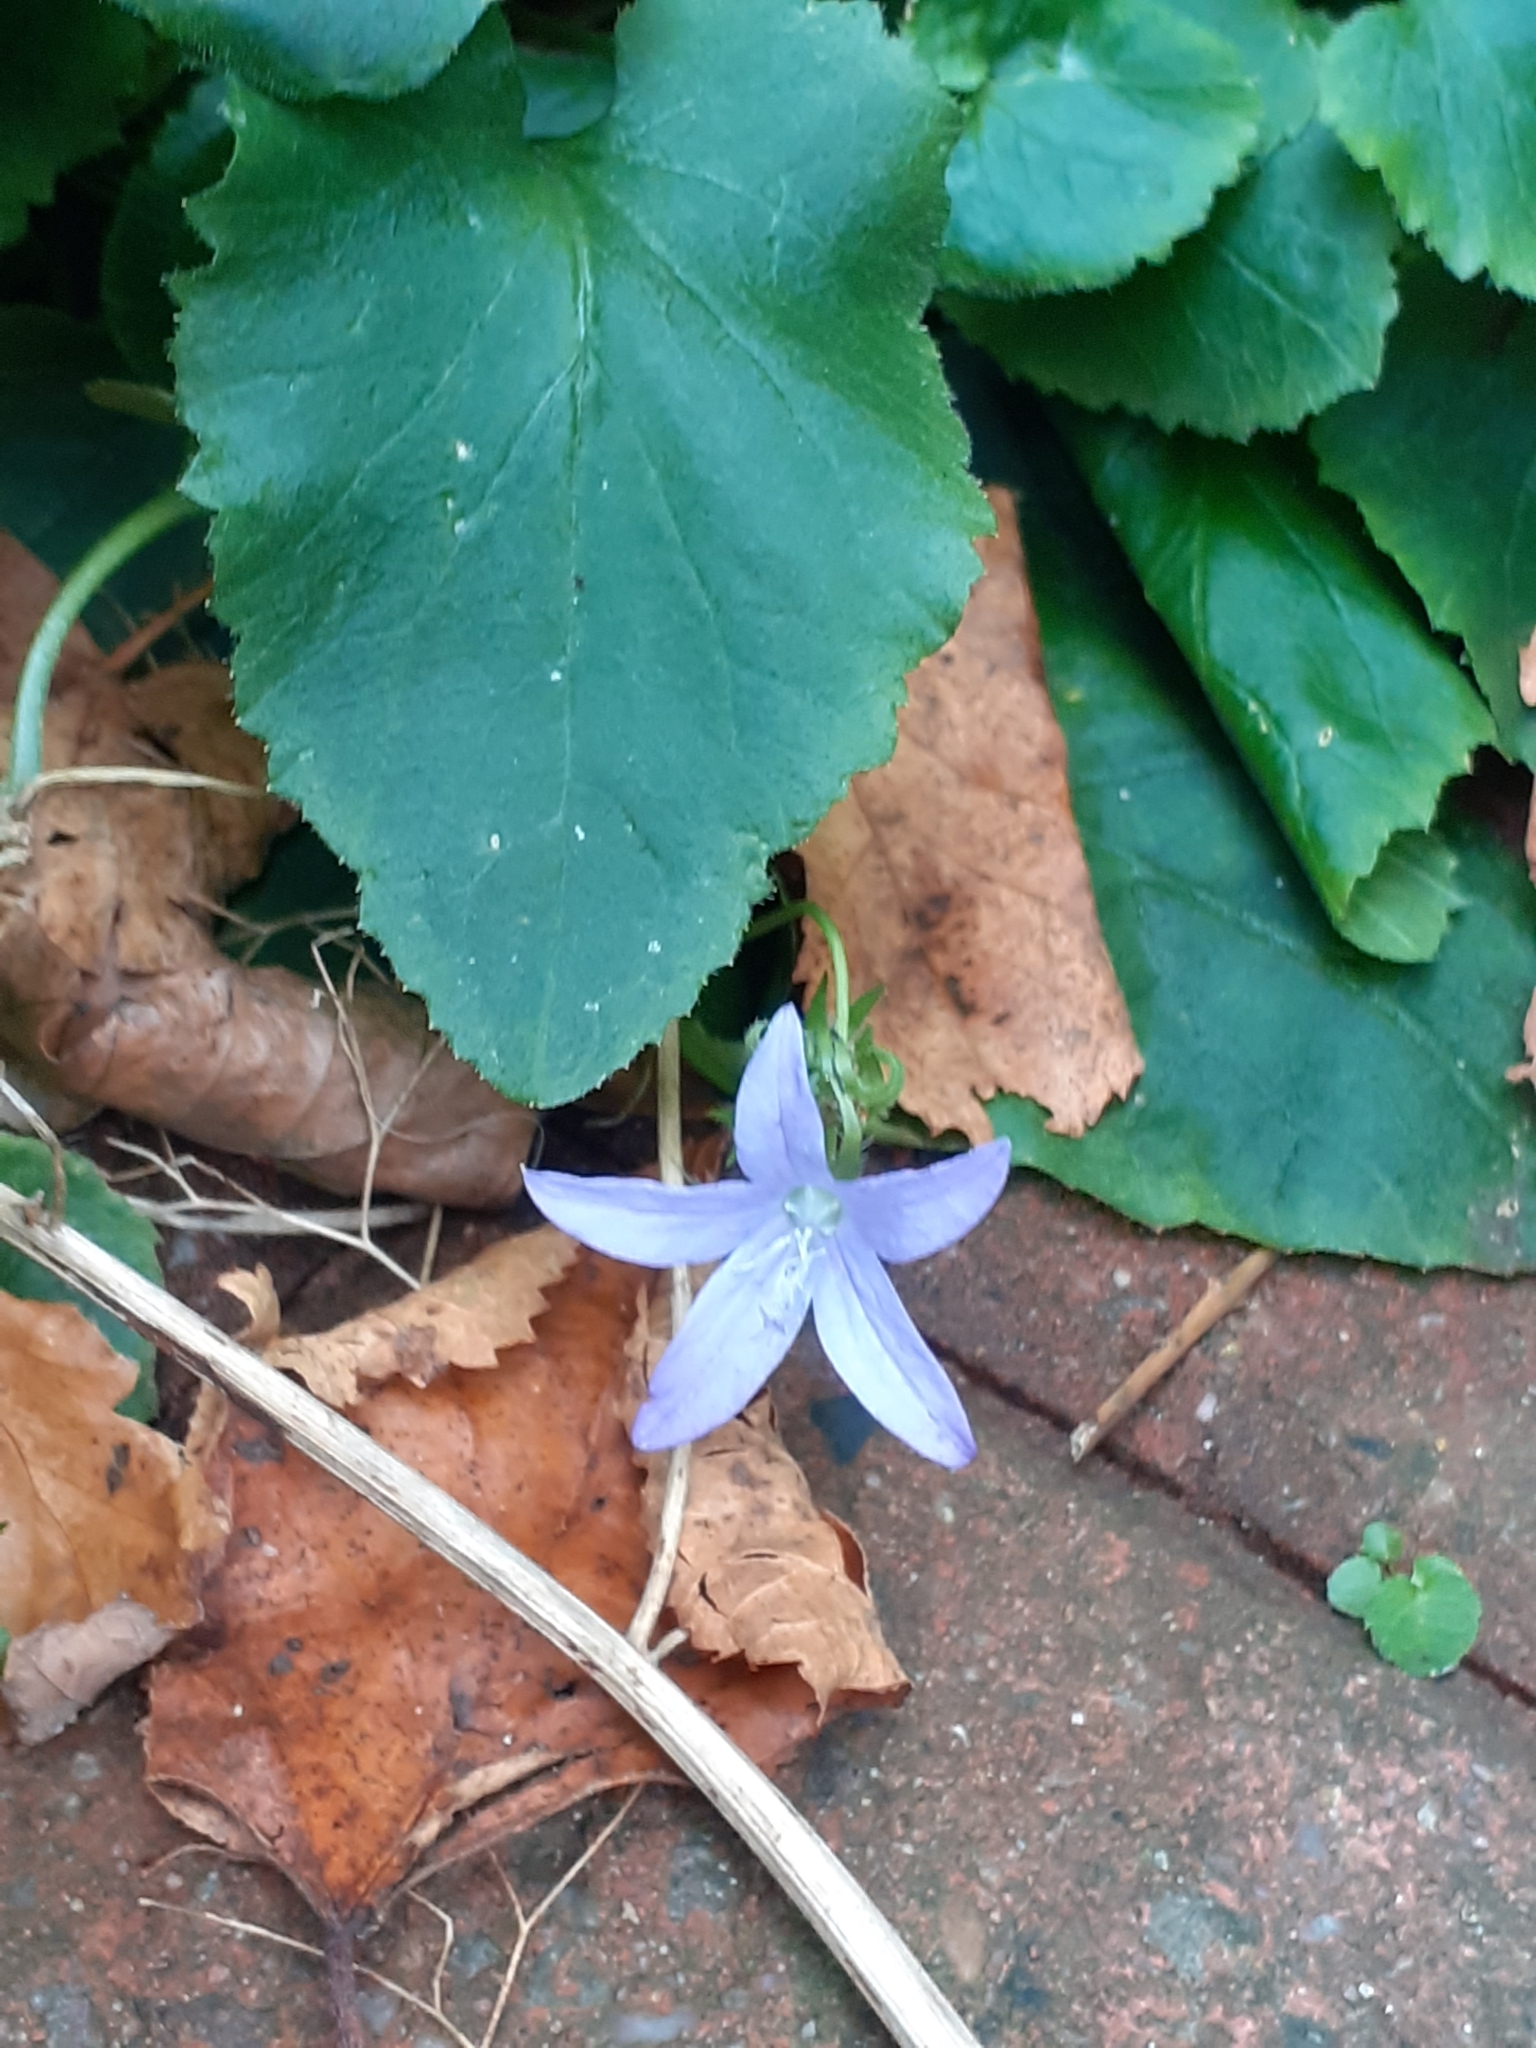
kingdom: Plantae
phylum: Tracheophyta
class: Magnoliopsida
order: Asterales
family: Campanulaceae
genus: Campanula
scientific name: Campanula poscharskyana
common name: Trailing bellflower
